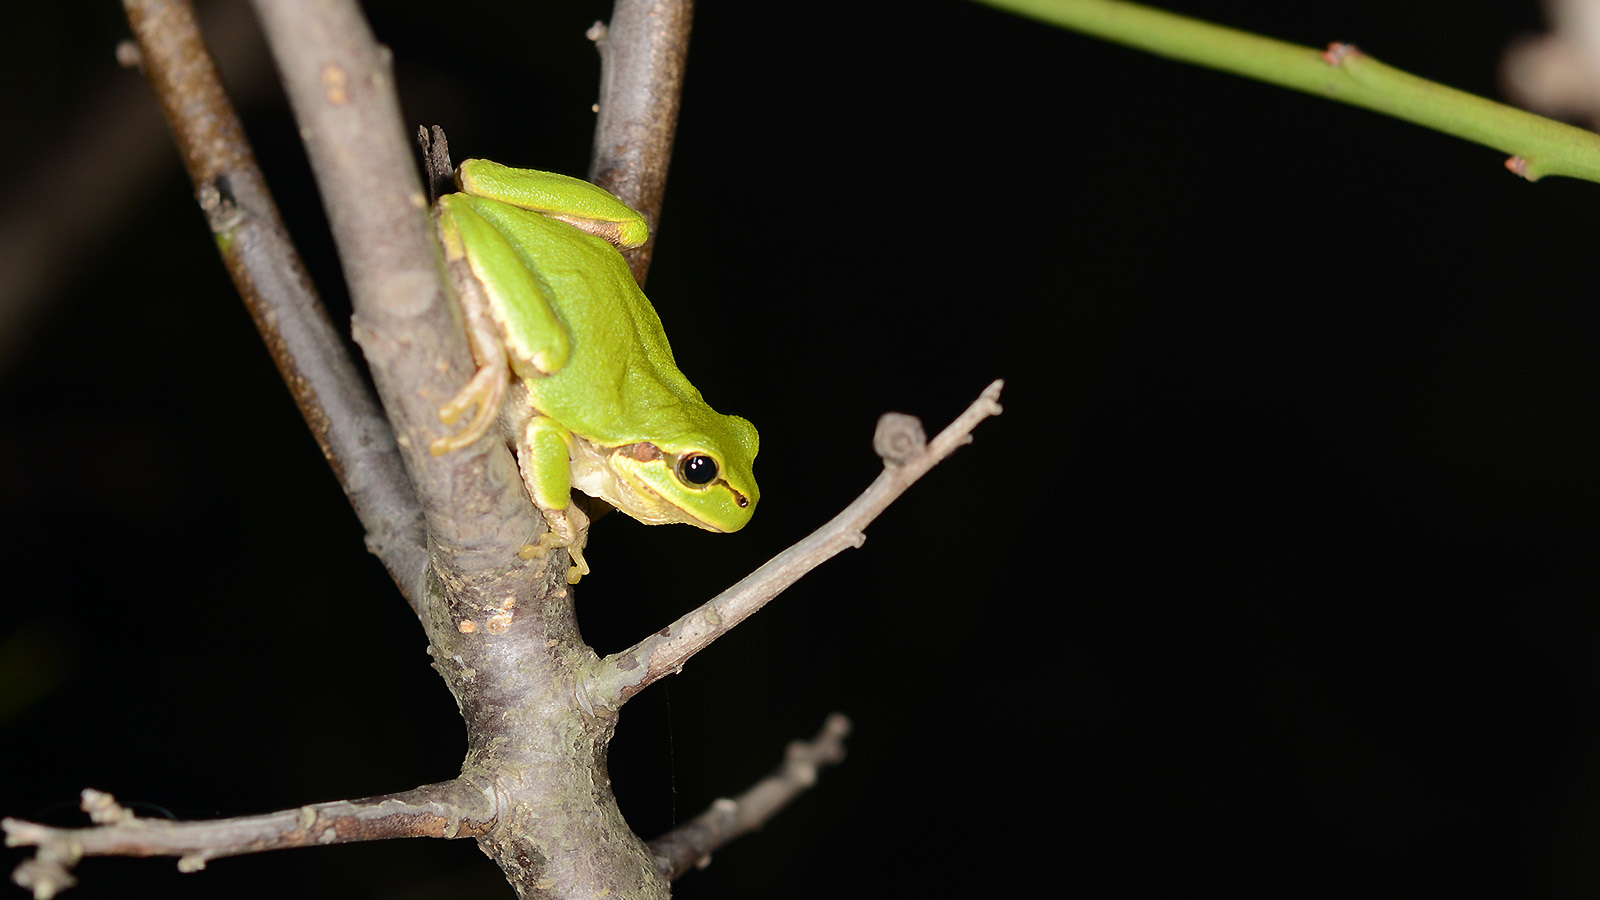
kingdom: Animalia
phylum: Chordata
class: Amphibia
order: Anura
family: Hylidae
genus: Dryophytes
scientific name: Dryophytes japonicus
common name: Japanese treefrog
